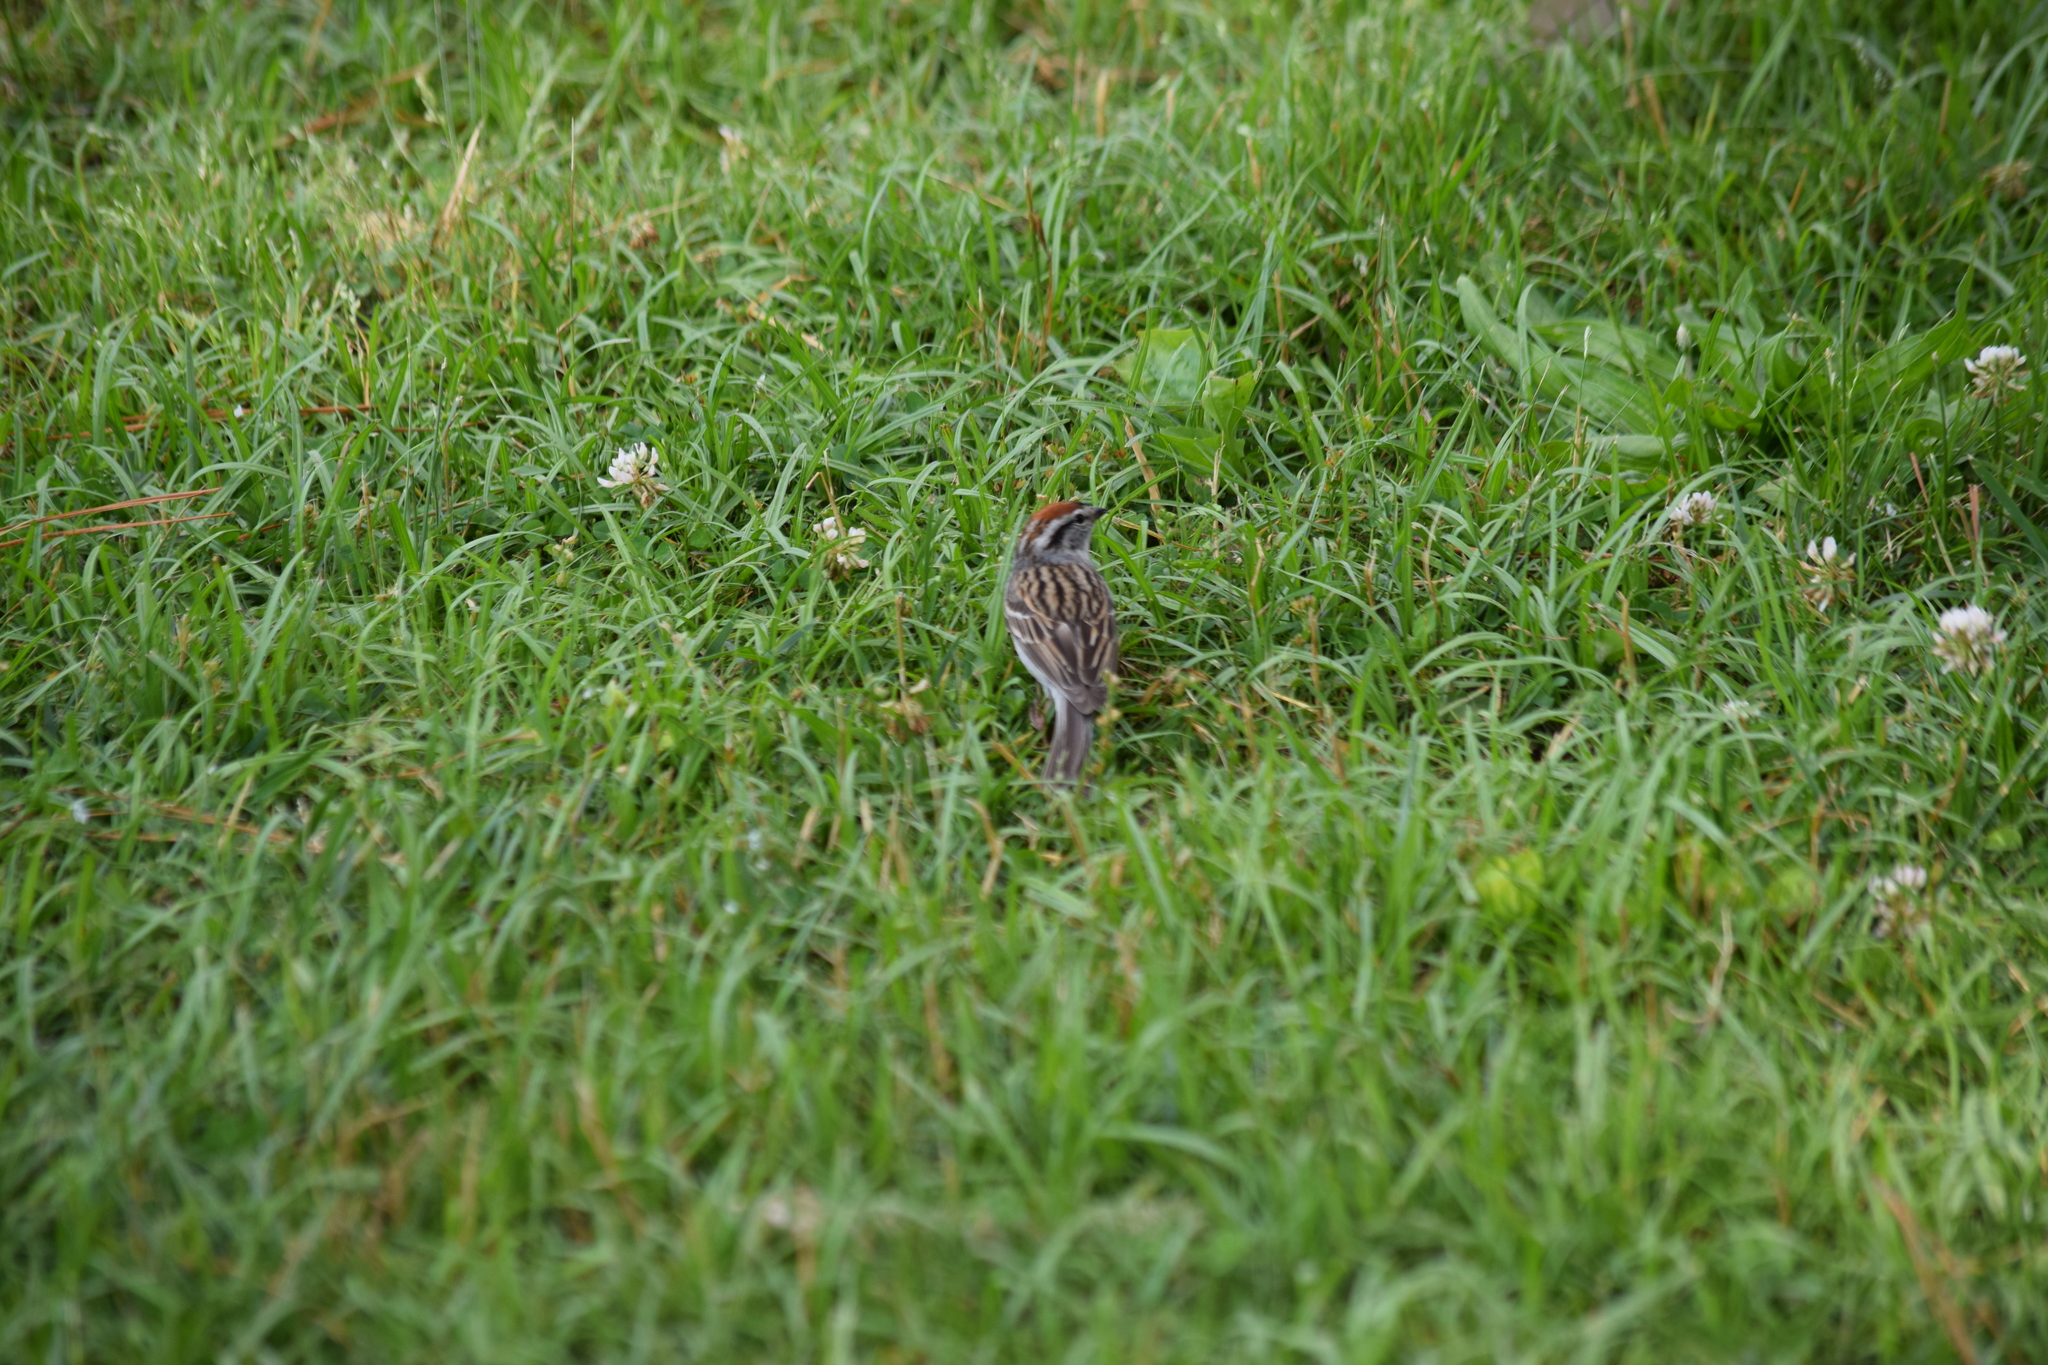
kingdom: Animalia
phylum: Chordata
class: Aves
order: Passeriformes
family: Passerellidae
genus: Spizella
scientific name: Spizella passerina
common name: Chipping sparrow
